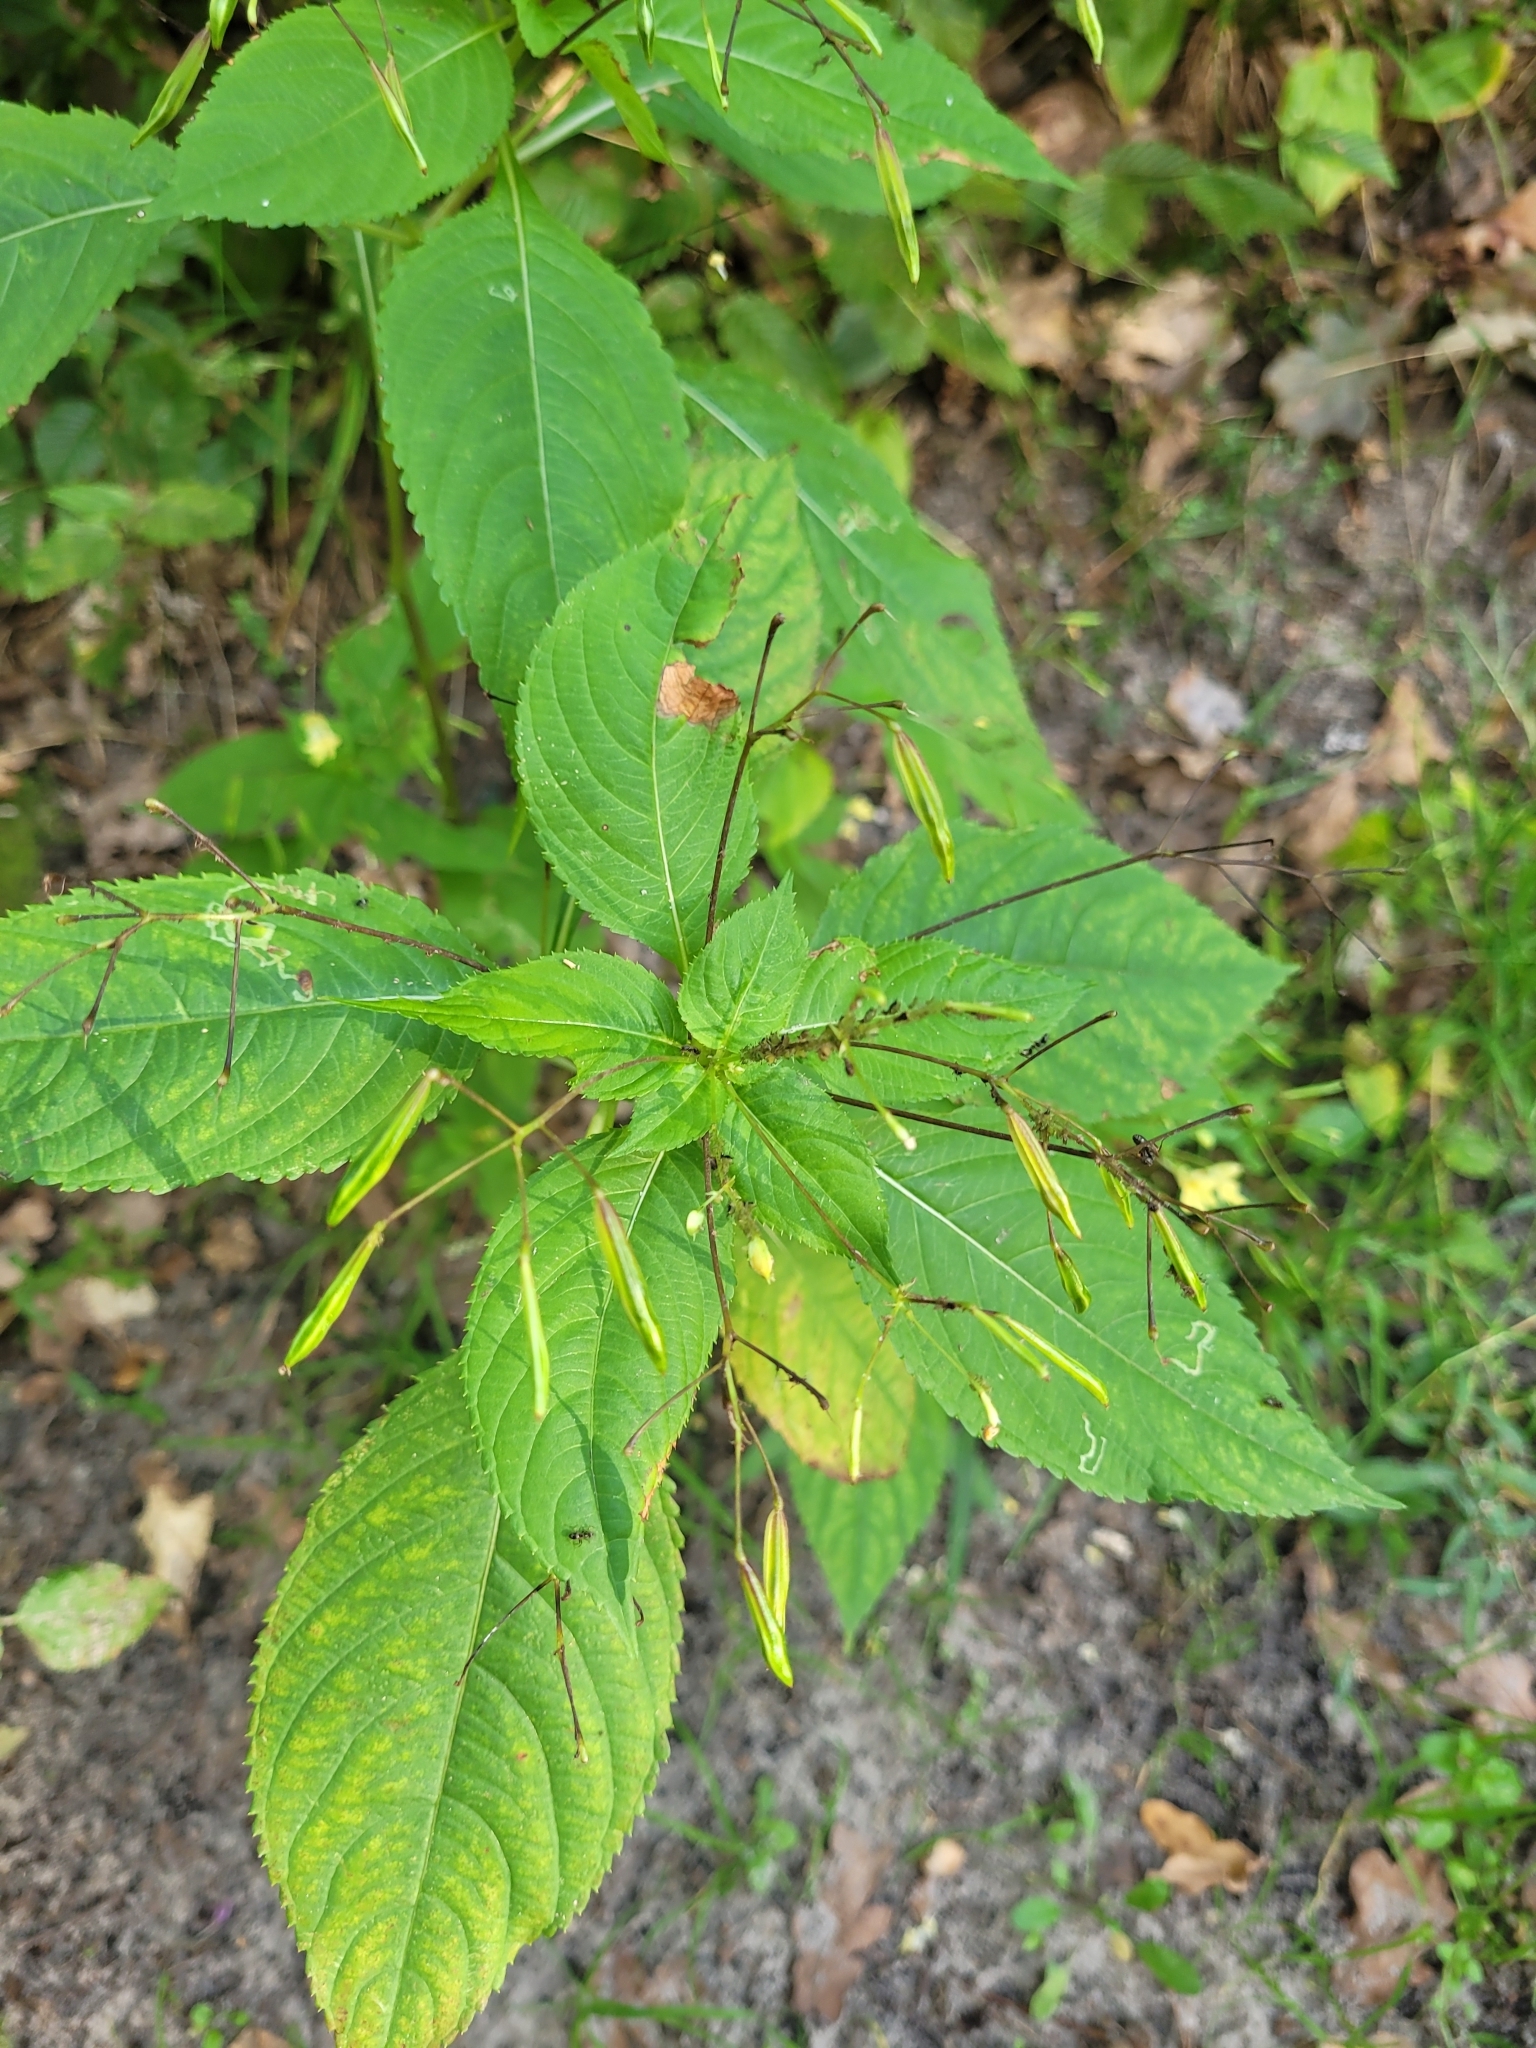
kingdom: Plantae
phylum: Tracheophyta
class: Magnoliopsida
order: Ericales
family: Balsaminaceae
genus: Impatiens
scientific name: Impatiens parviflora
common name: Small balsam
